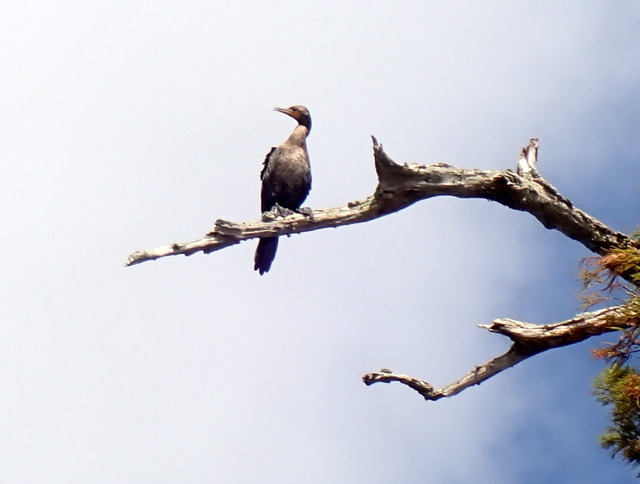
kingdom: Animalia
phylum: Chordata
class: Aves
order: Suliformes
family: Phalacrocoracidae
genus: Phalacrocorax
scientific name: Phalacrocorax auritus
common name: Double-crested cormorant
